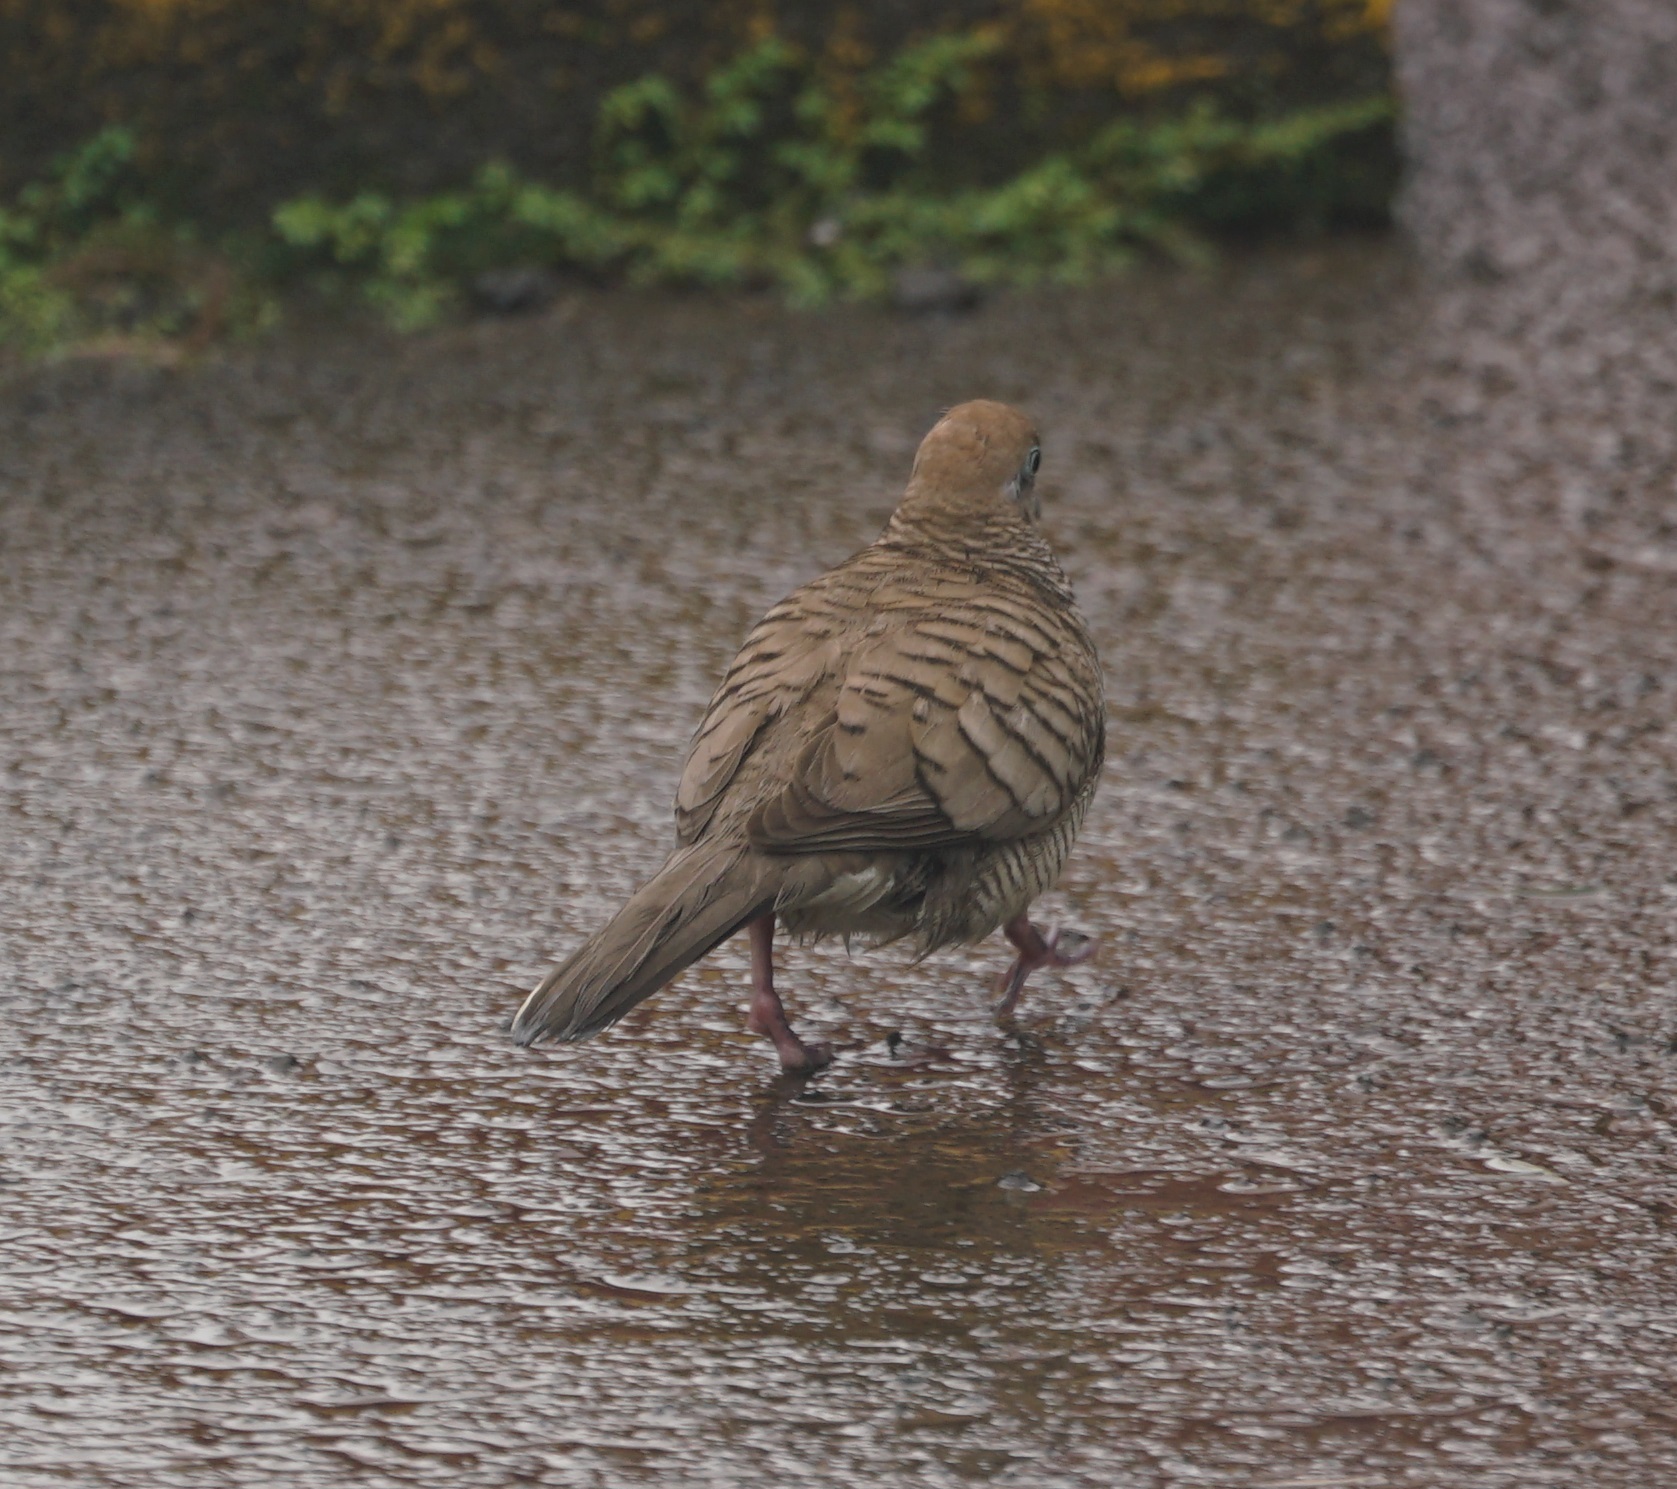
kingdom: Animalia
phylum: Chordata
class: Aves
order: Columbiformes
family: Columbidae
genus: Geopelia
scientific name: Geopelia striata
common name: Zebra dove
